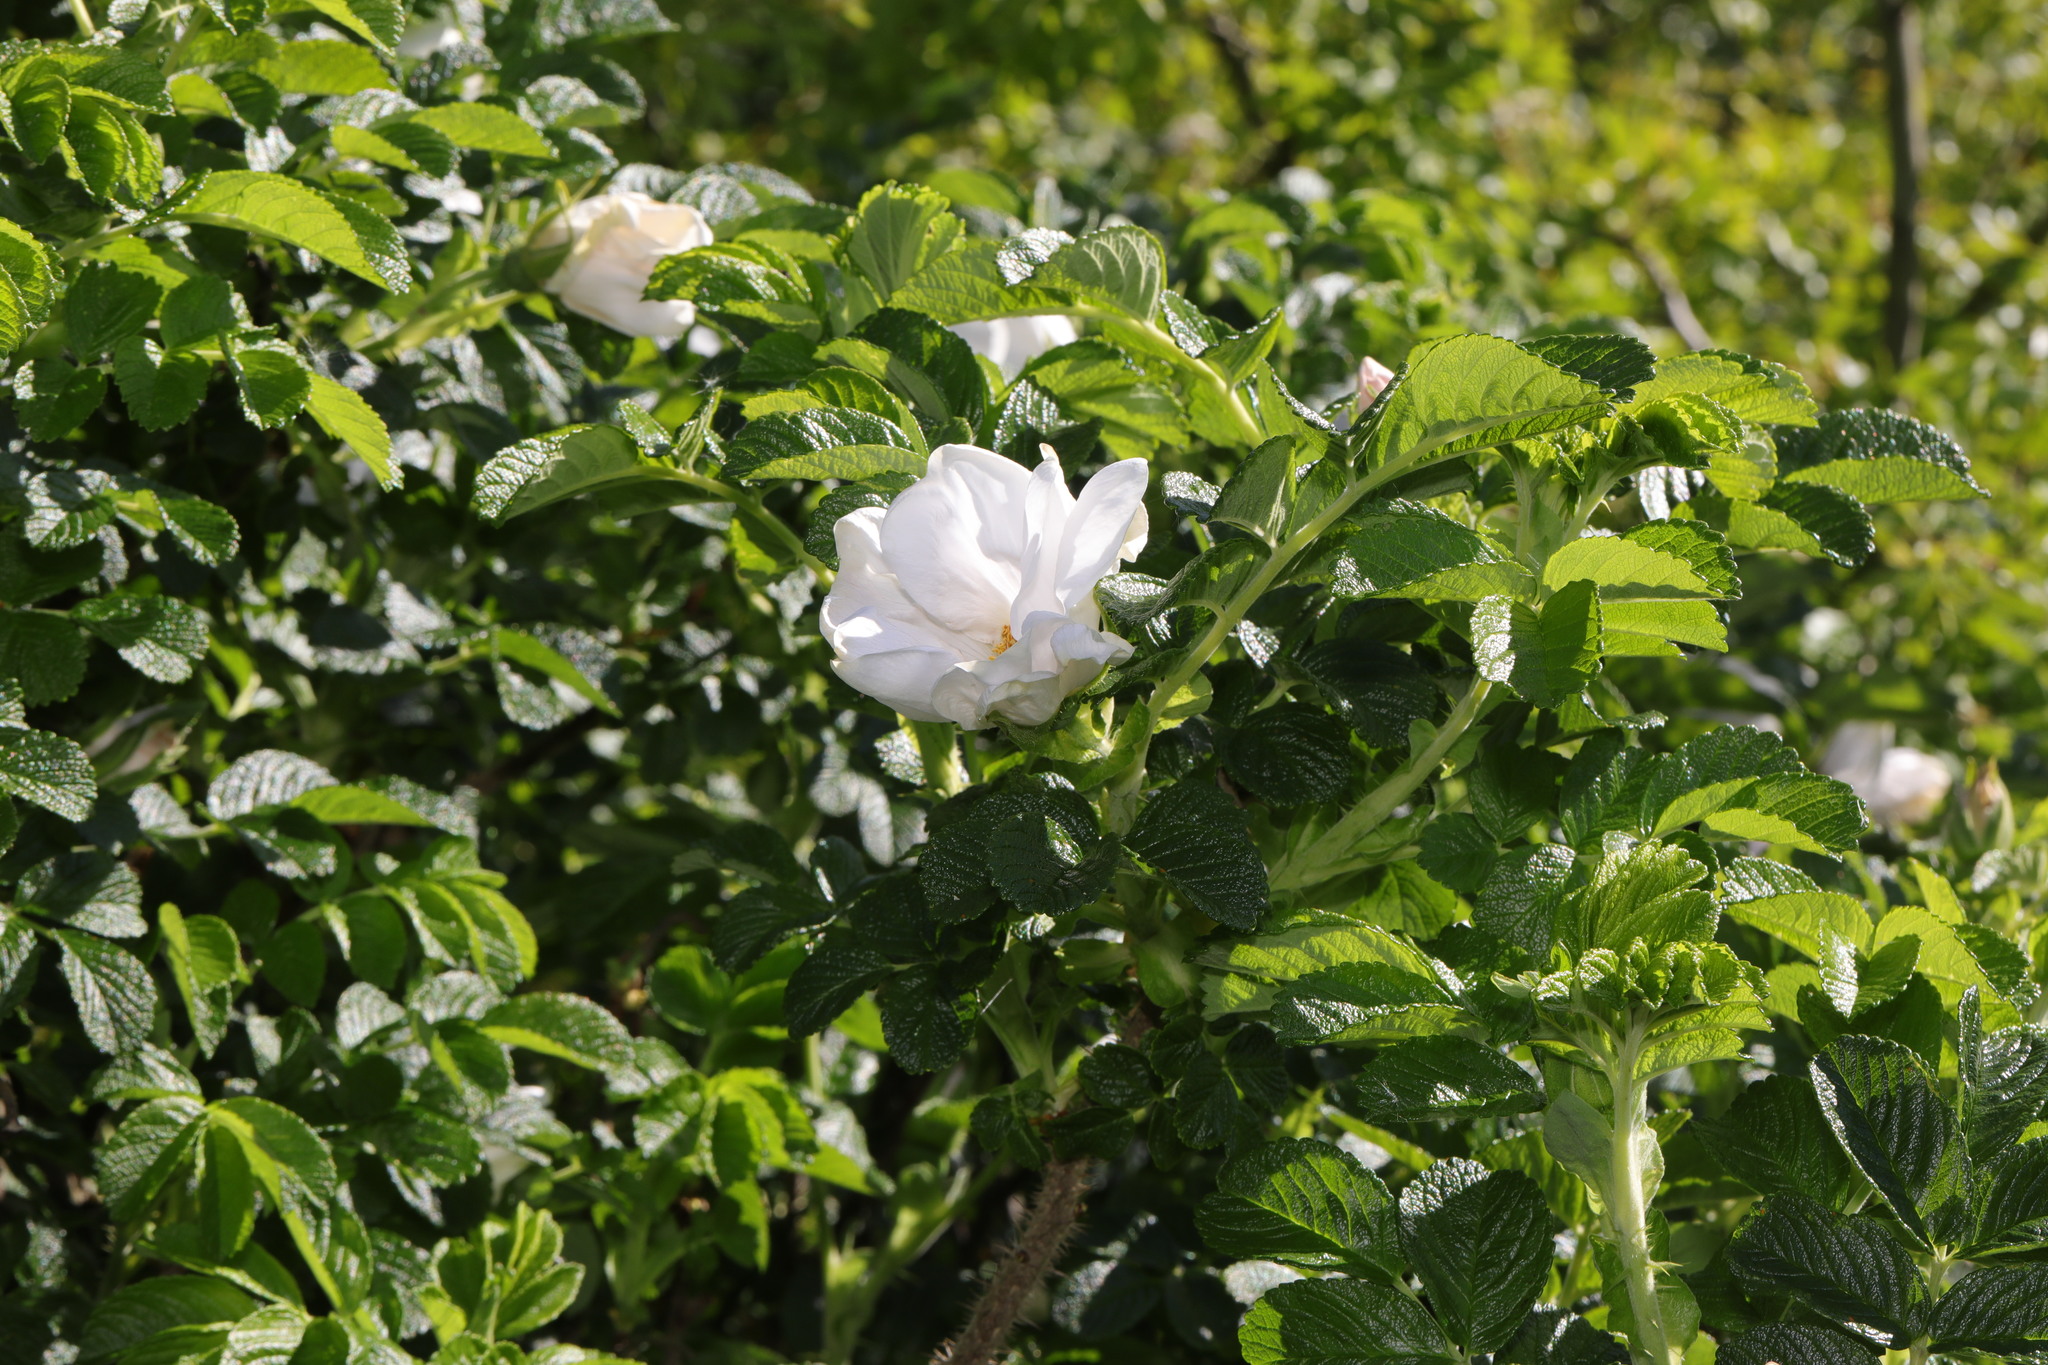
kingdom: Plantae
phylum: Tracheophyta
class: Magnoliopsida
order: Rosales
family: Rosaceae
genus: Rosa
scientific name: Rosa rugosa
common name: Japanese rose
